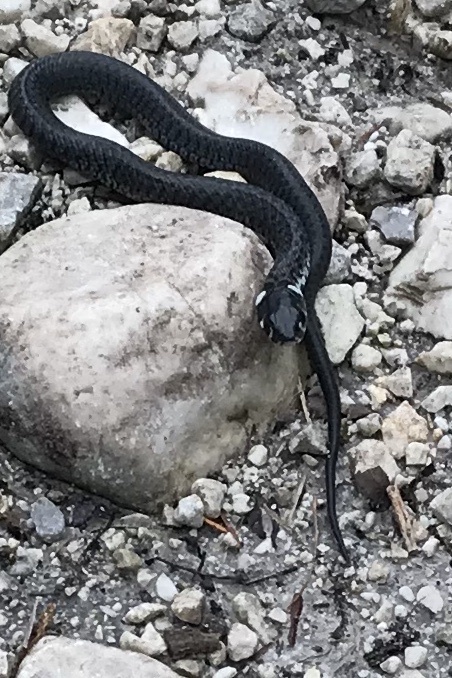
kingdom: Animalia
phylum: Chordata
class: Squamata
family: Colubridae
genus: Natrix
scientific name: Natrix natrix
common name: Grass snake
